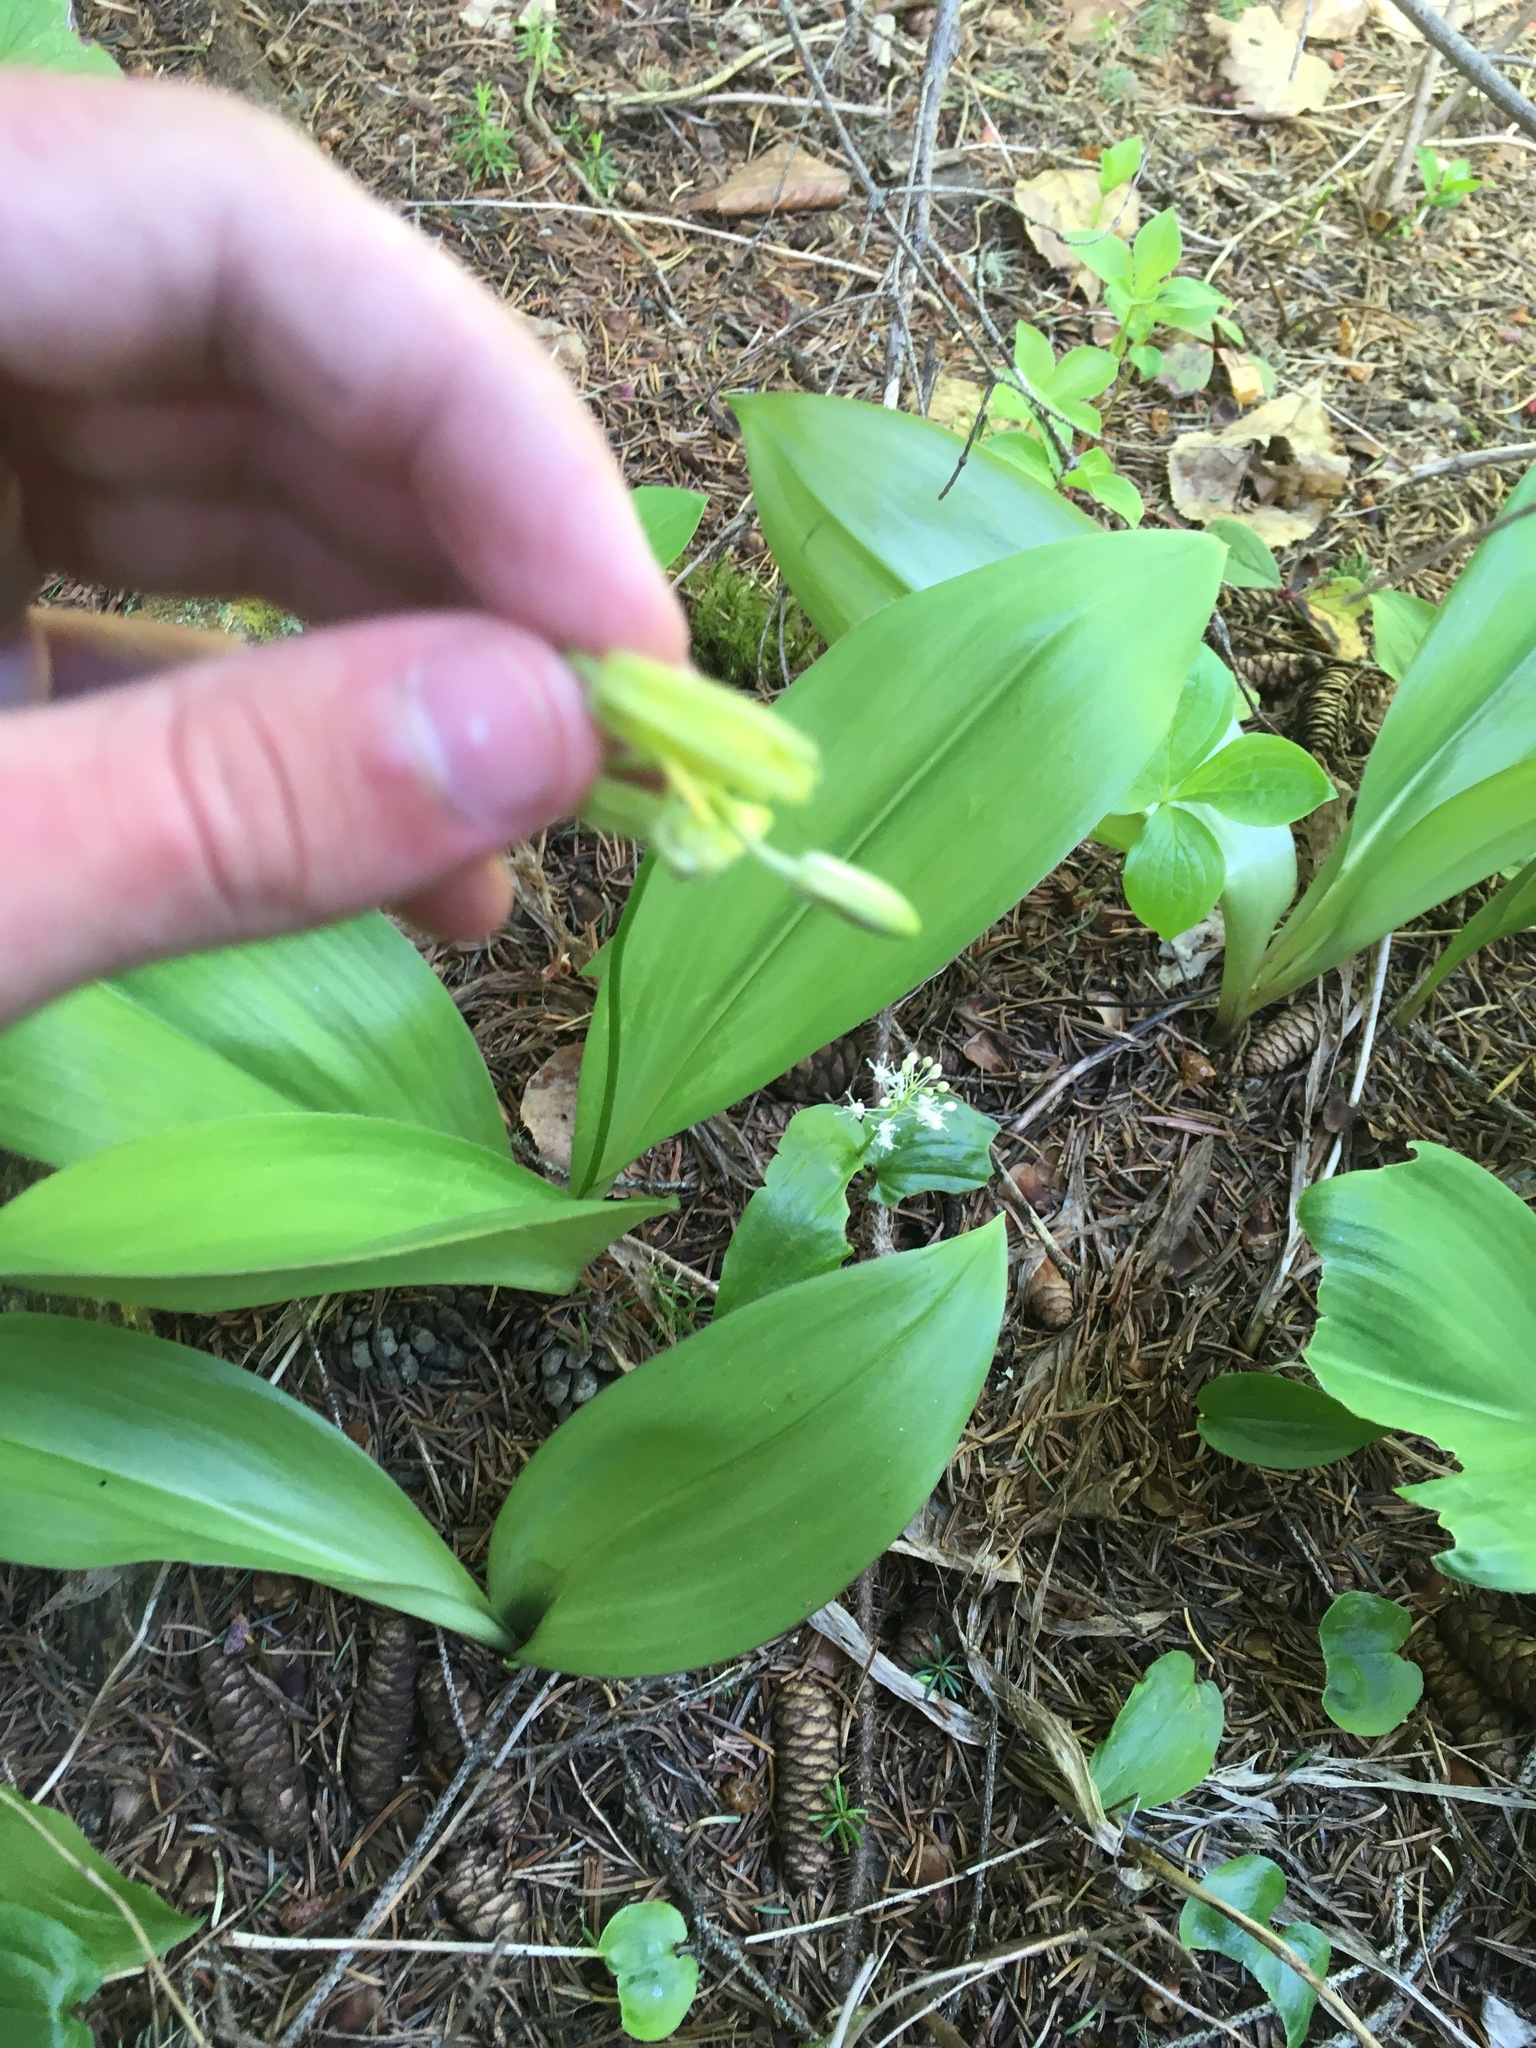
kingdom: Plantae
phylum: Tracheophyta
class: Liliopsida
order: Liliales
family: Liliaceae
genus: Clintonia
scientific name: Clintonia borealis
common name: Yellow clintonia
